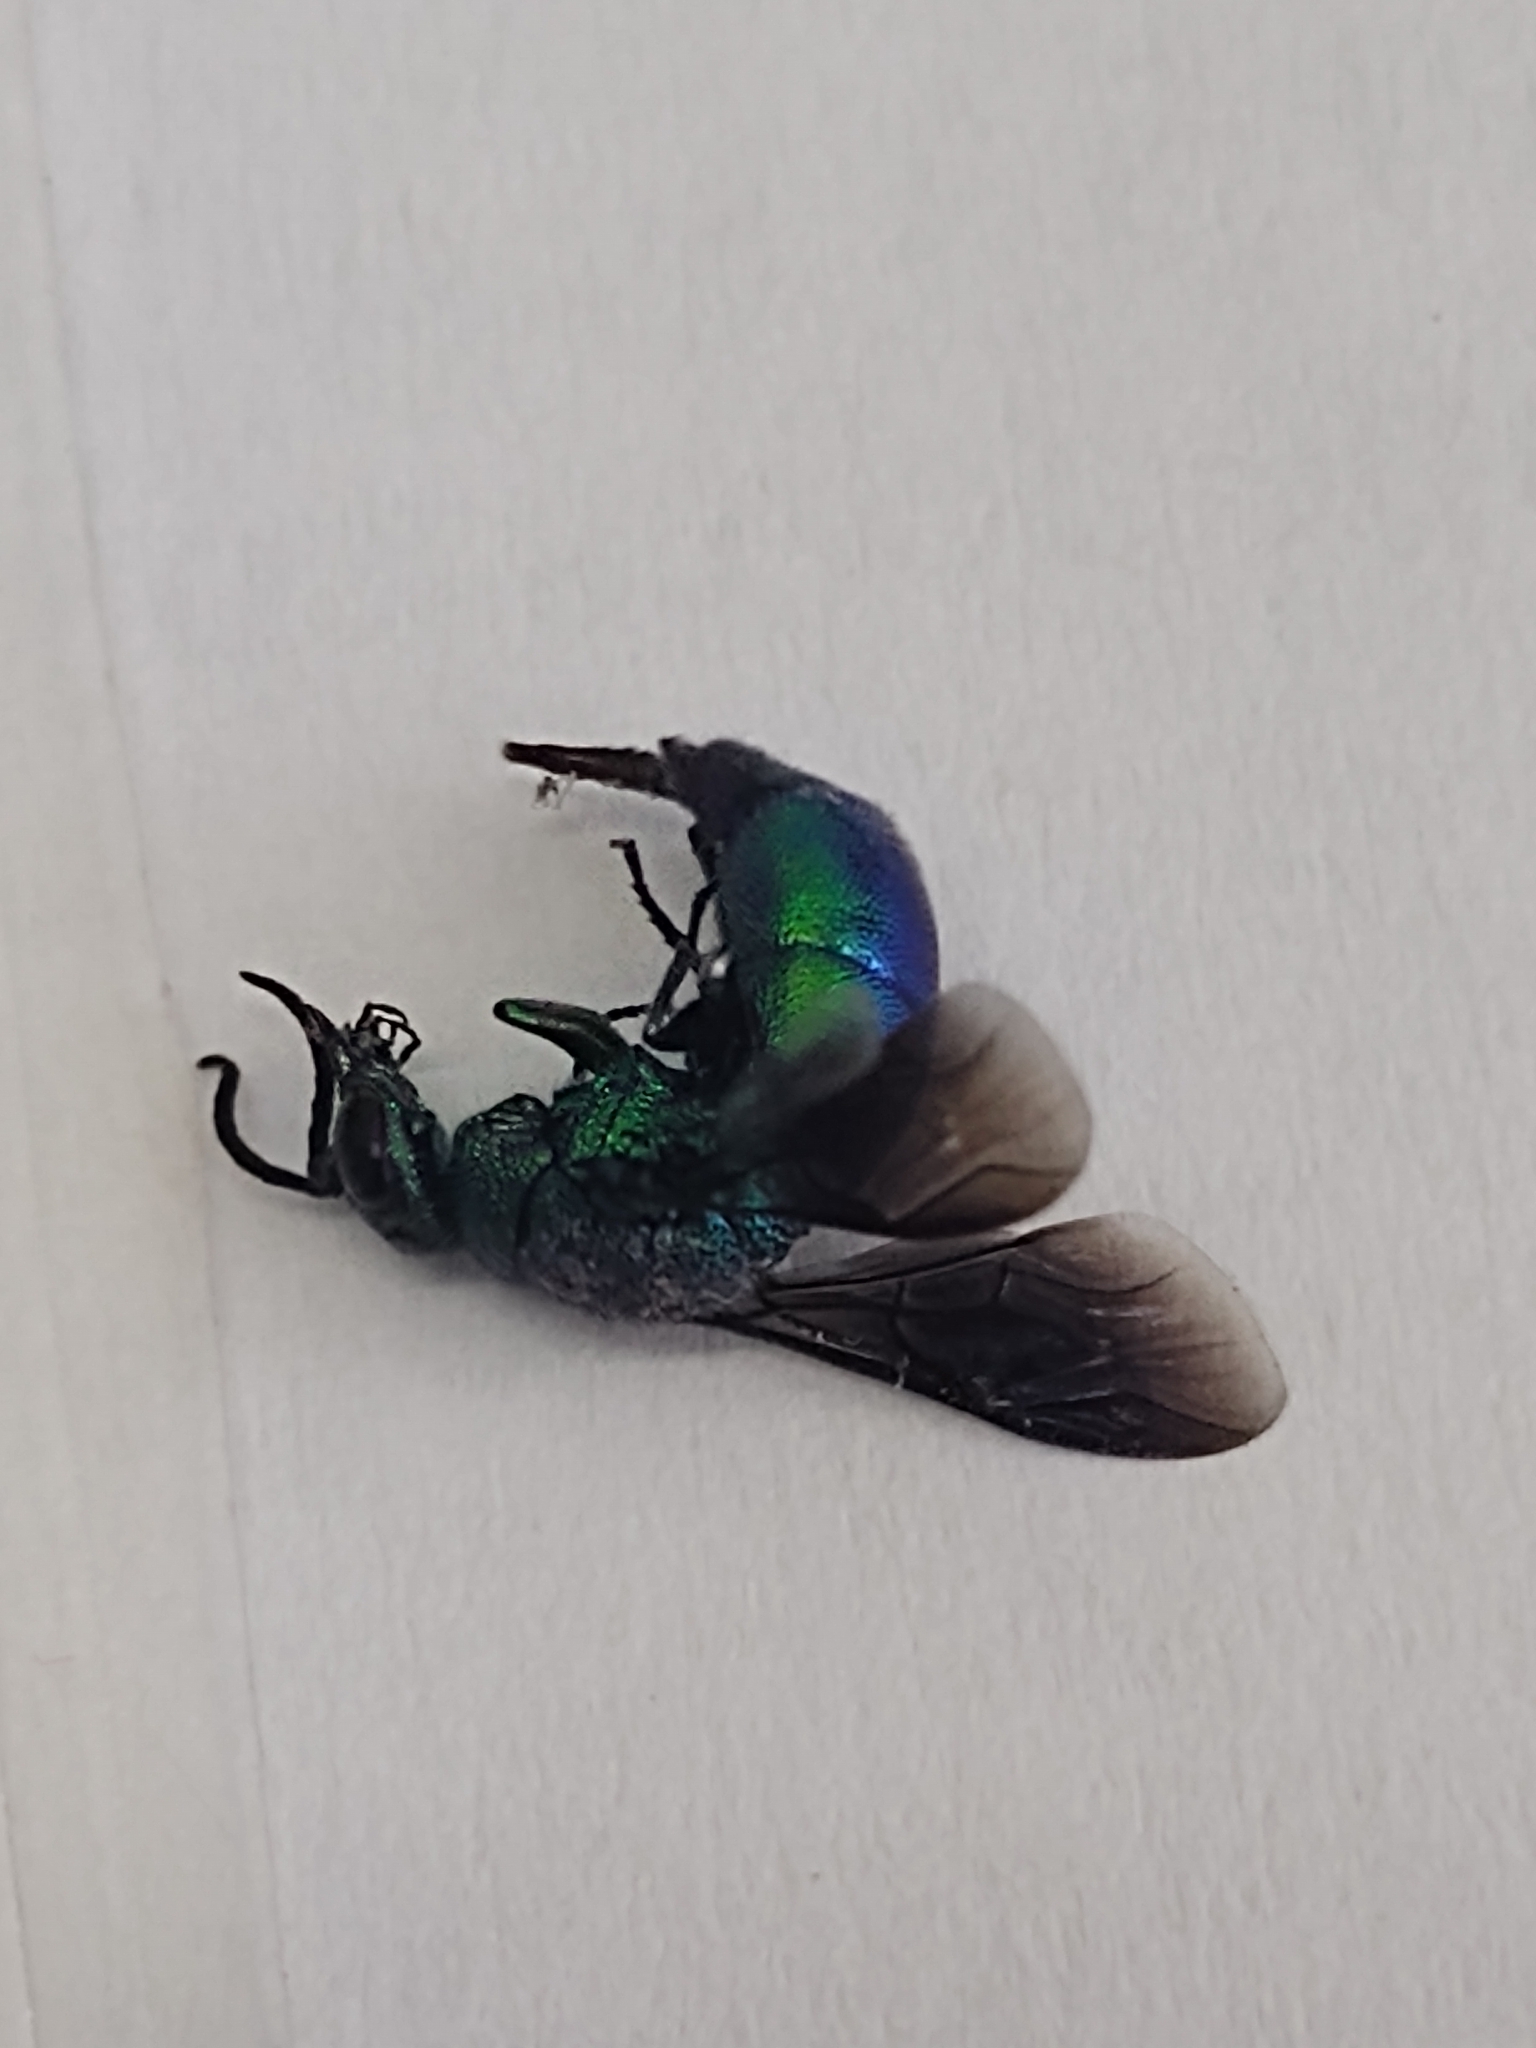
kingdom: Animalia
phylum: Arthropoda
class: Insecta
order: Hymenoptera
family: Chrysididae
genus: Chrysis
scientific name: Chrysis angolensis
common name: Cuckoo wasp
